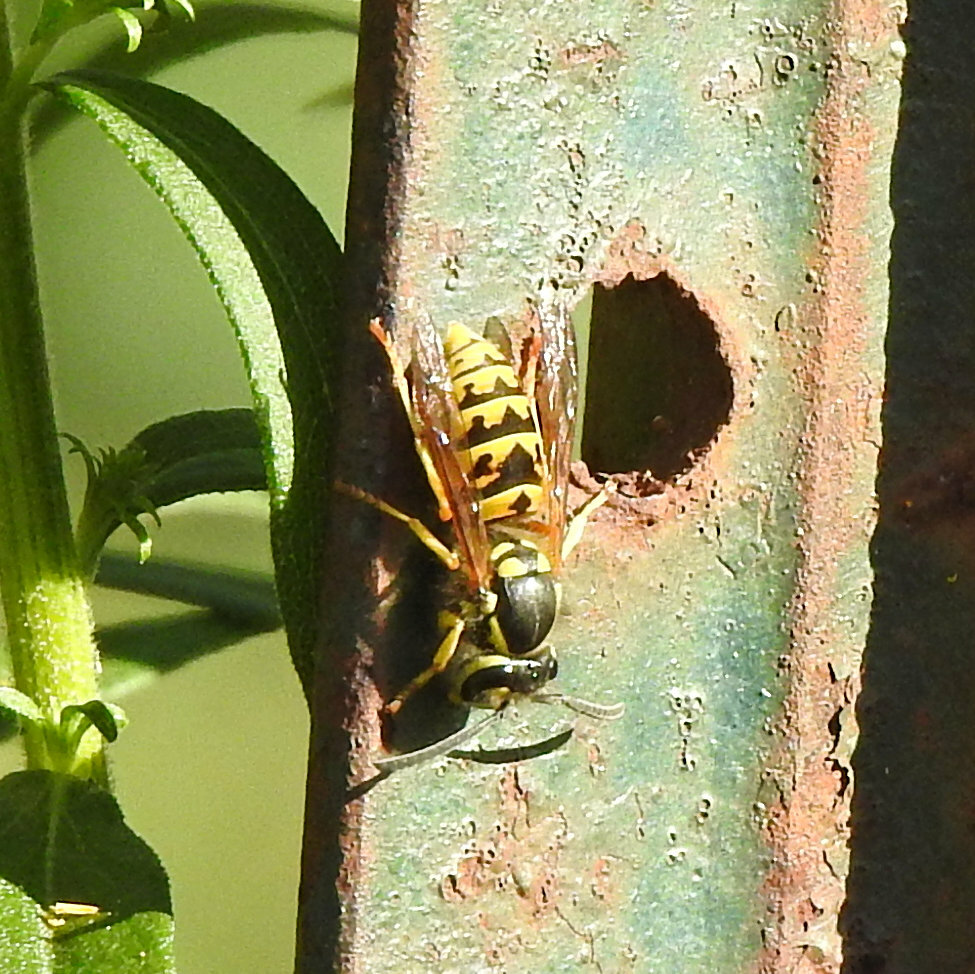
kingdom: Animalia
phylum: Arthropoda
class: Insecta
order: Hymenoptera
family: Vespidae
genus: Vespula
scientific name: Vespula germanica
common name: German wasp
